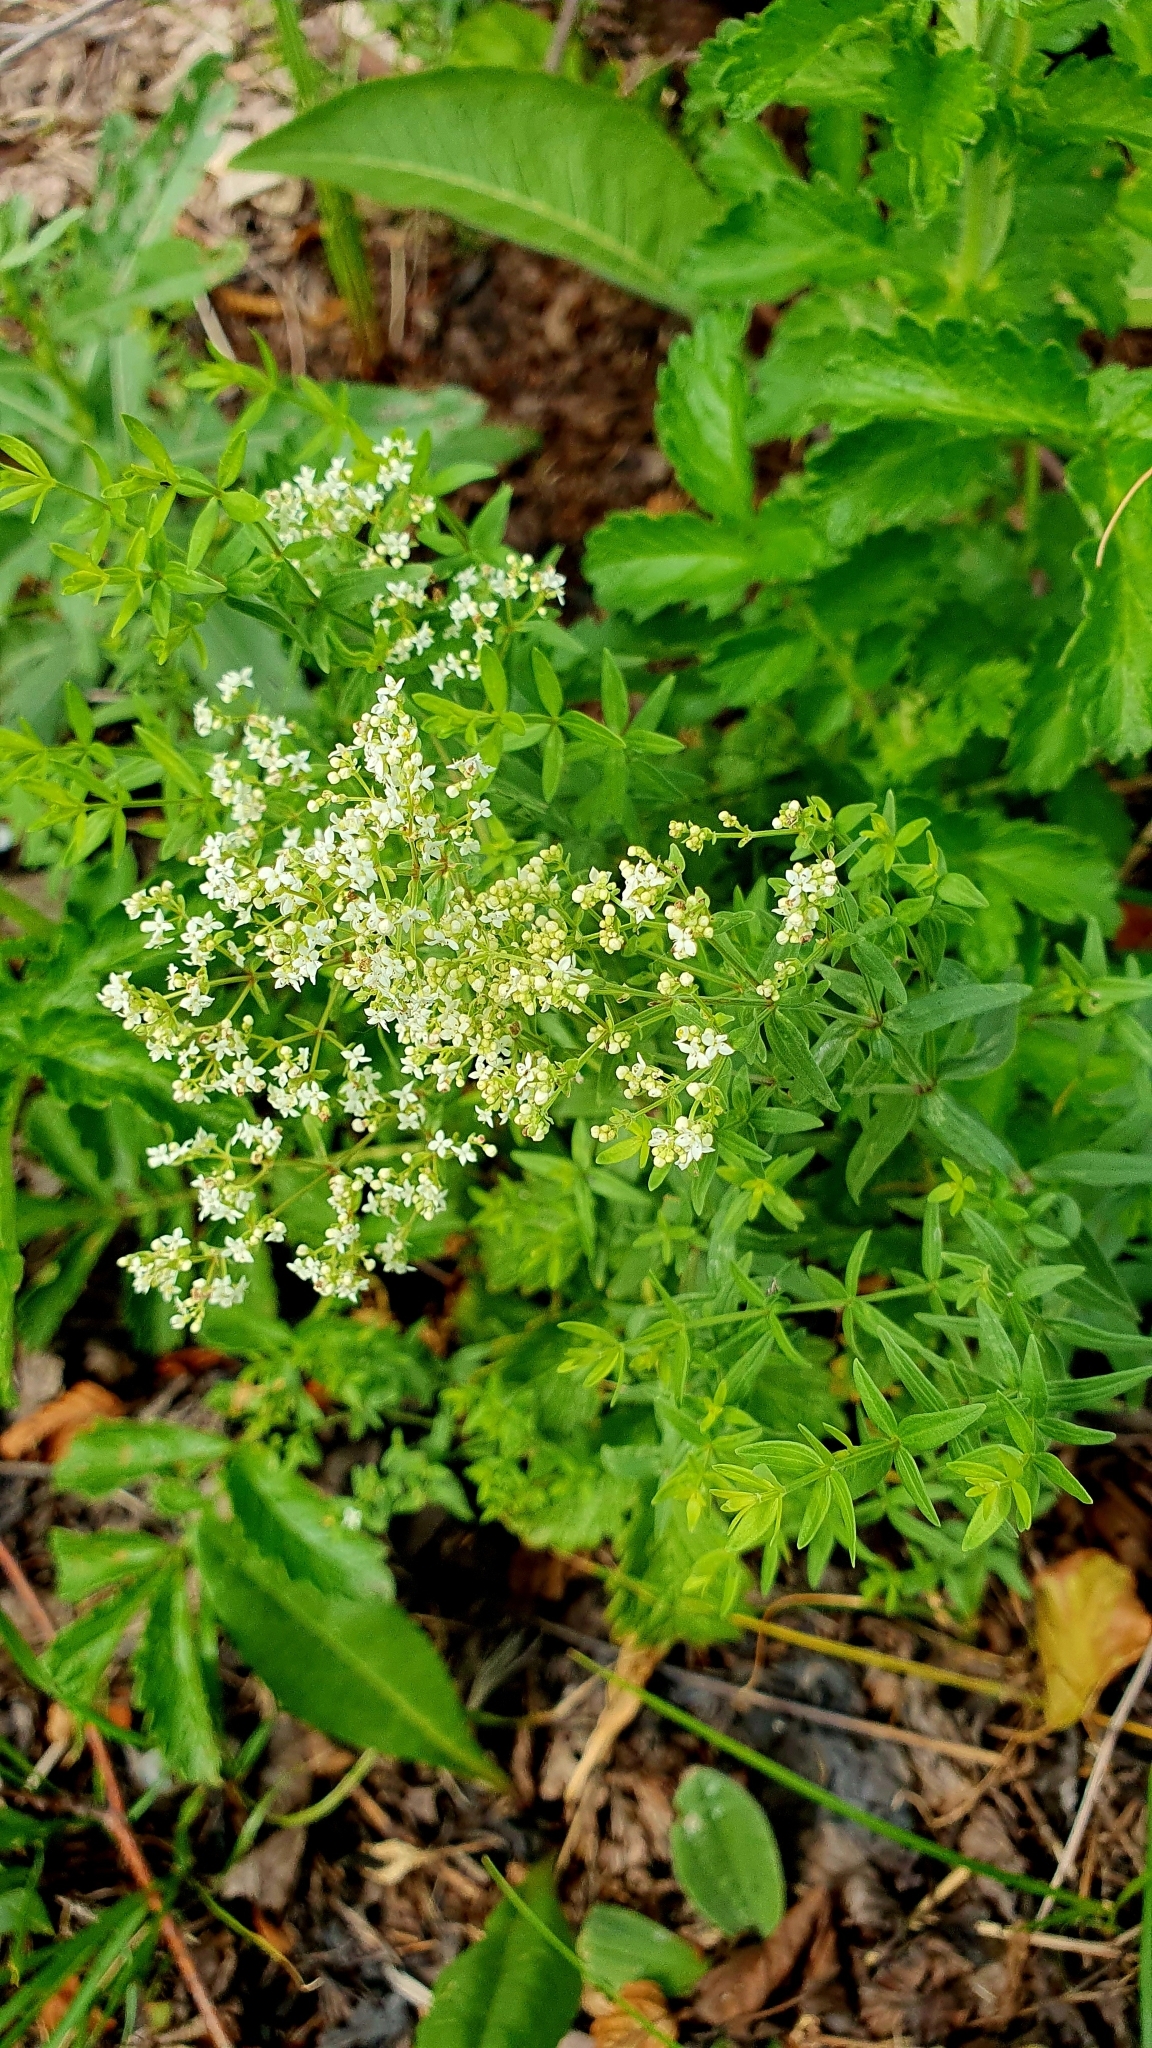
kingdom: Plantae
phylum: Tracheophyta
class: Magnoliopsida
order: Gentianales
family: Rubiaceae
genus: Galium
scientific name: Galium boreale
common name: Northern bedstraw
